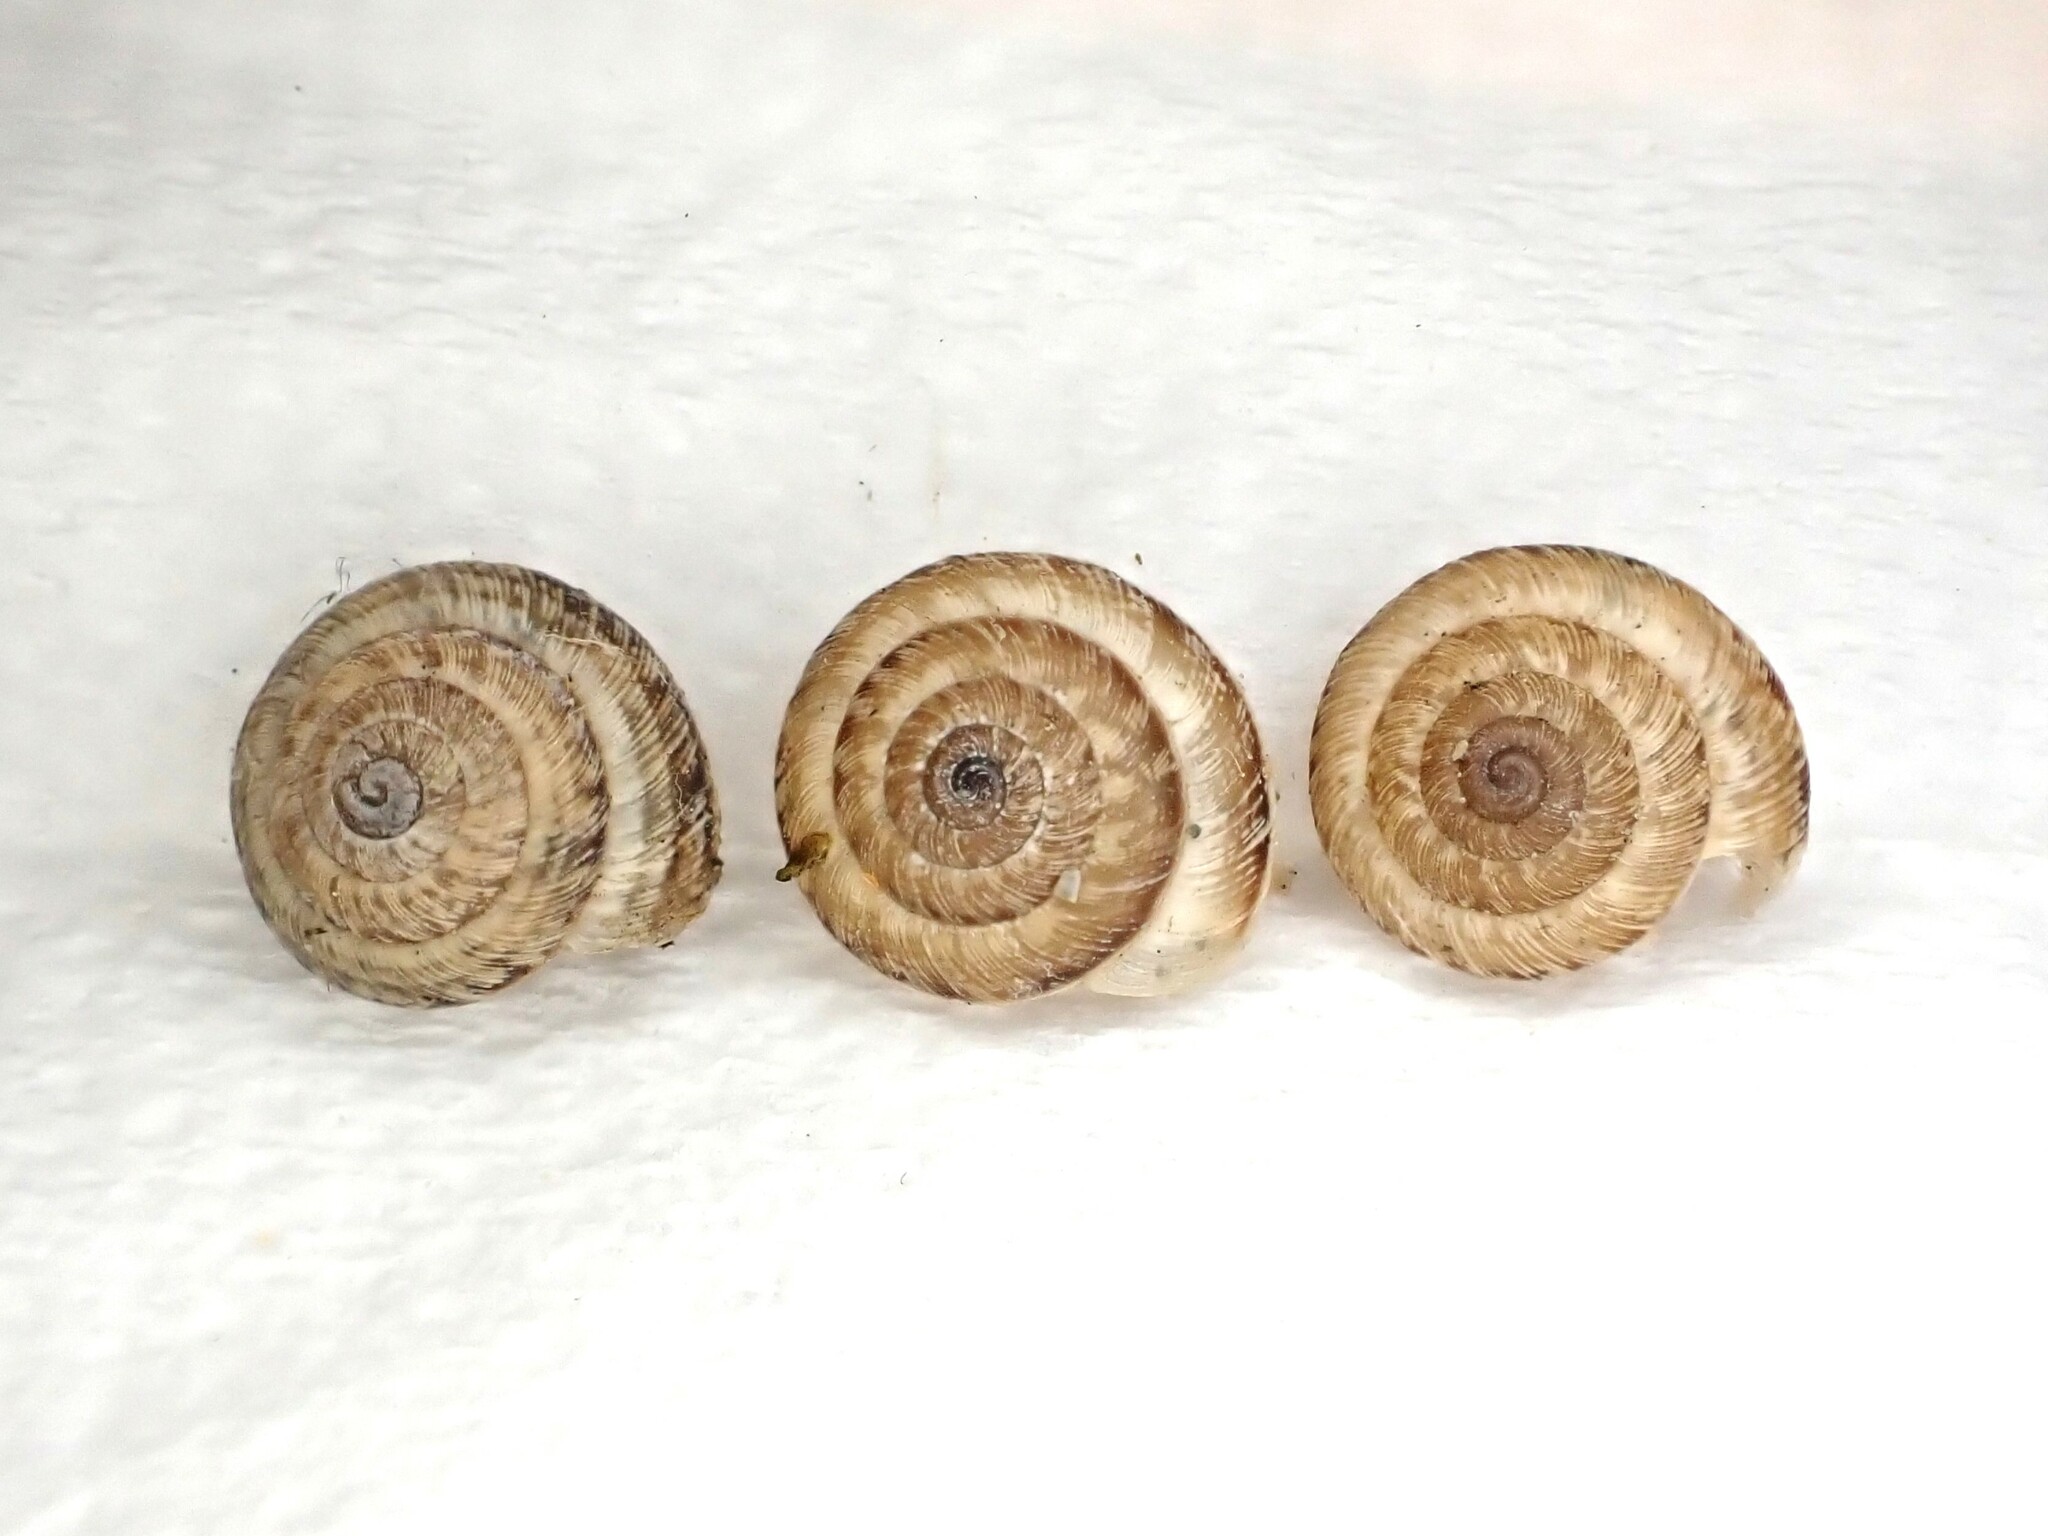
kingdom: Animalia
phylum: Mollusca
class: Gastropoda
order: Stylommatophora
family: Geomitridae
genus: Xeroplexa
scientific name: Xeroplexa intersecta
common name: Wrinkled snail
